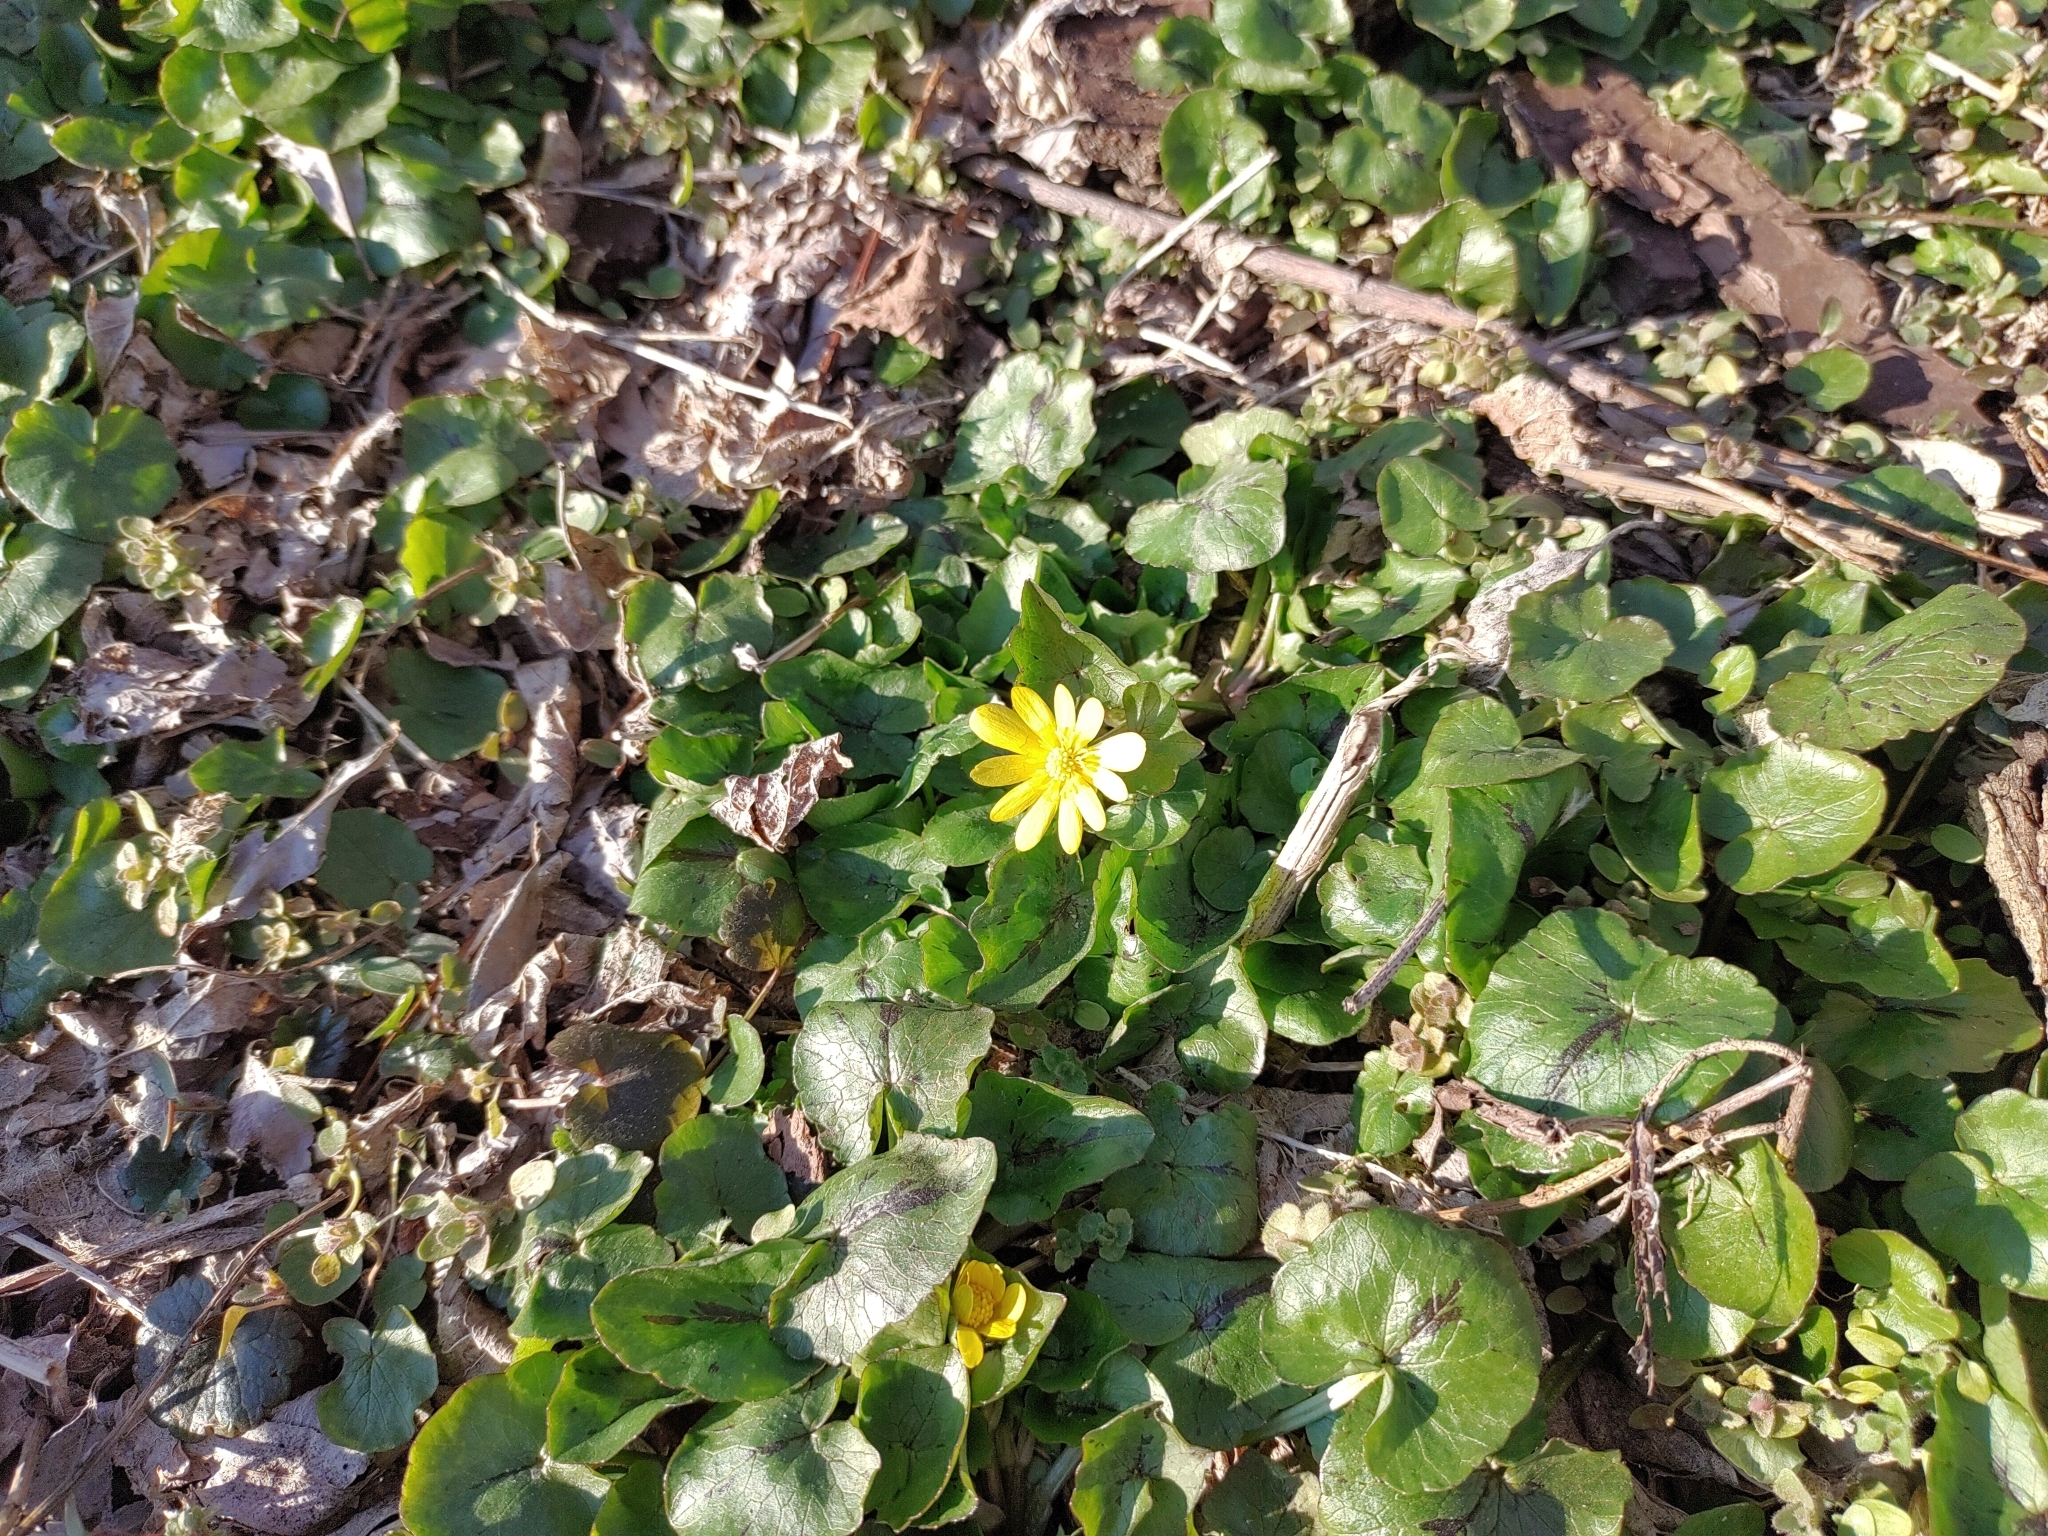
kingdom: Plantae
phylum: Tracheophyta
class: Magnoliopsida
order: Ranunculales
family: Ranunculaceae
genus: Ficaria
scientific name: Ficaria verna
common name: Lesser celandine
